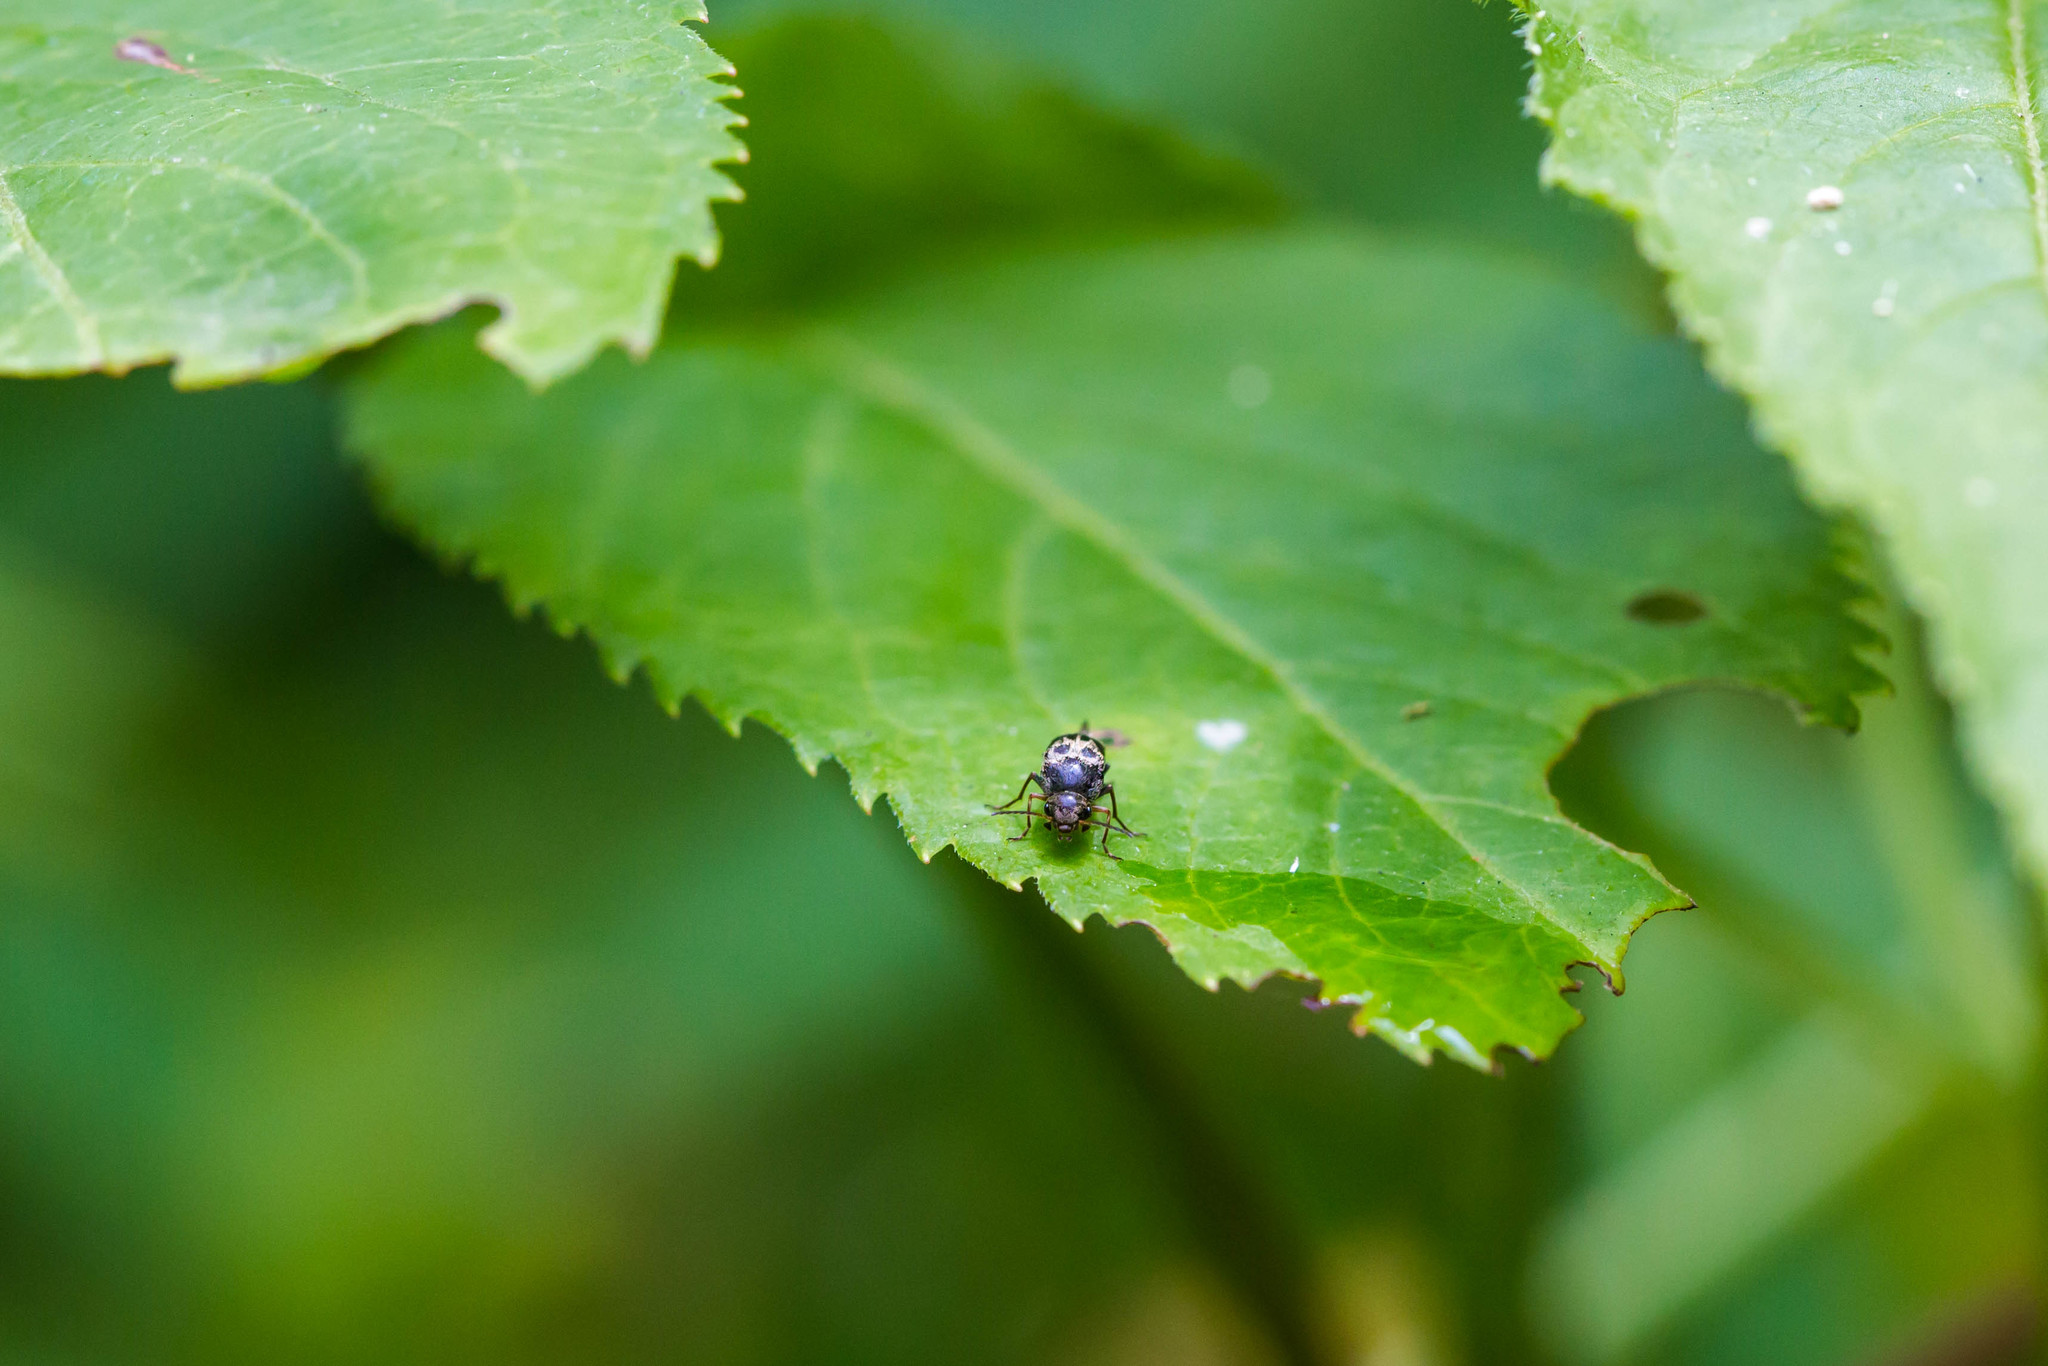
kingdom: Animalia
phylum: Arthropoda
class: Insecta
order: Coleoptera
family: Mordellidae
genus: Glipa
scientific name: Glipa oculata
